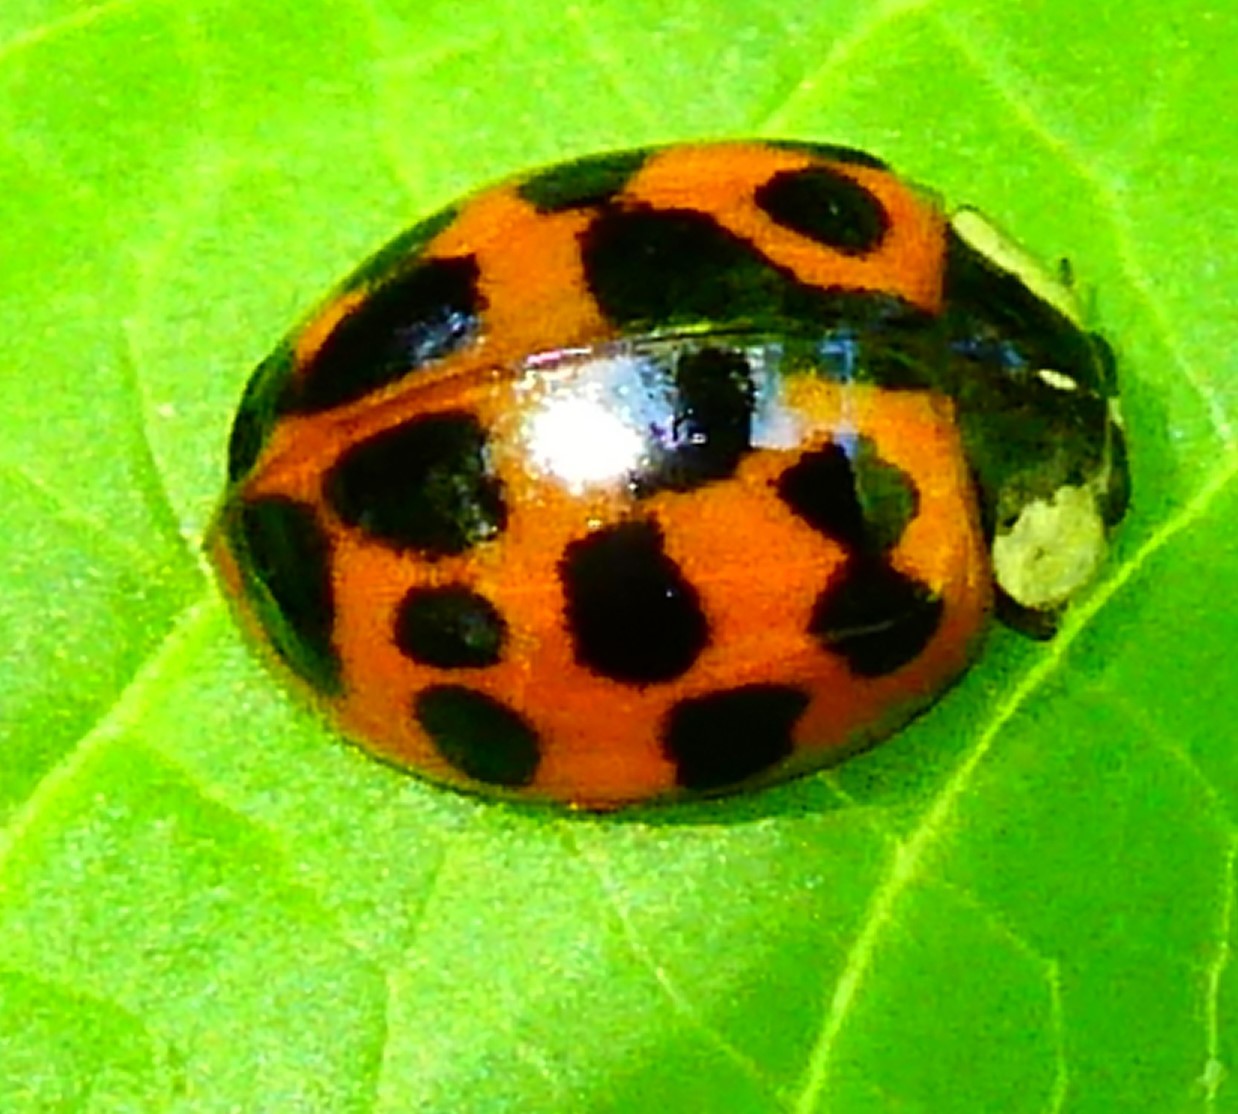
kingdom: Animalia
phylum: Arthropoda
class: Insecta
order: Coleoptera
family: Coccinellidae
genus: Harmonia
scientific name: Harmonia axyridis
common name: Harlequin ladybird
